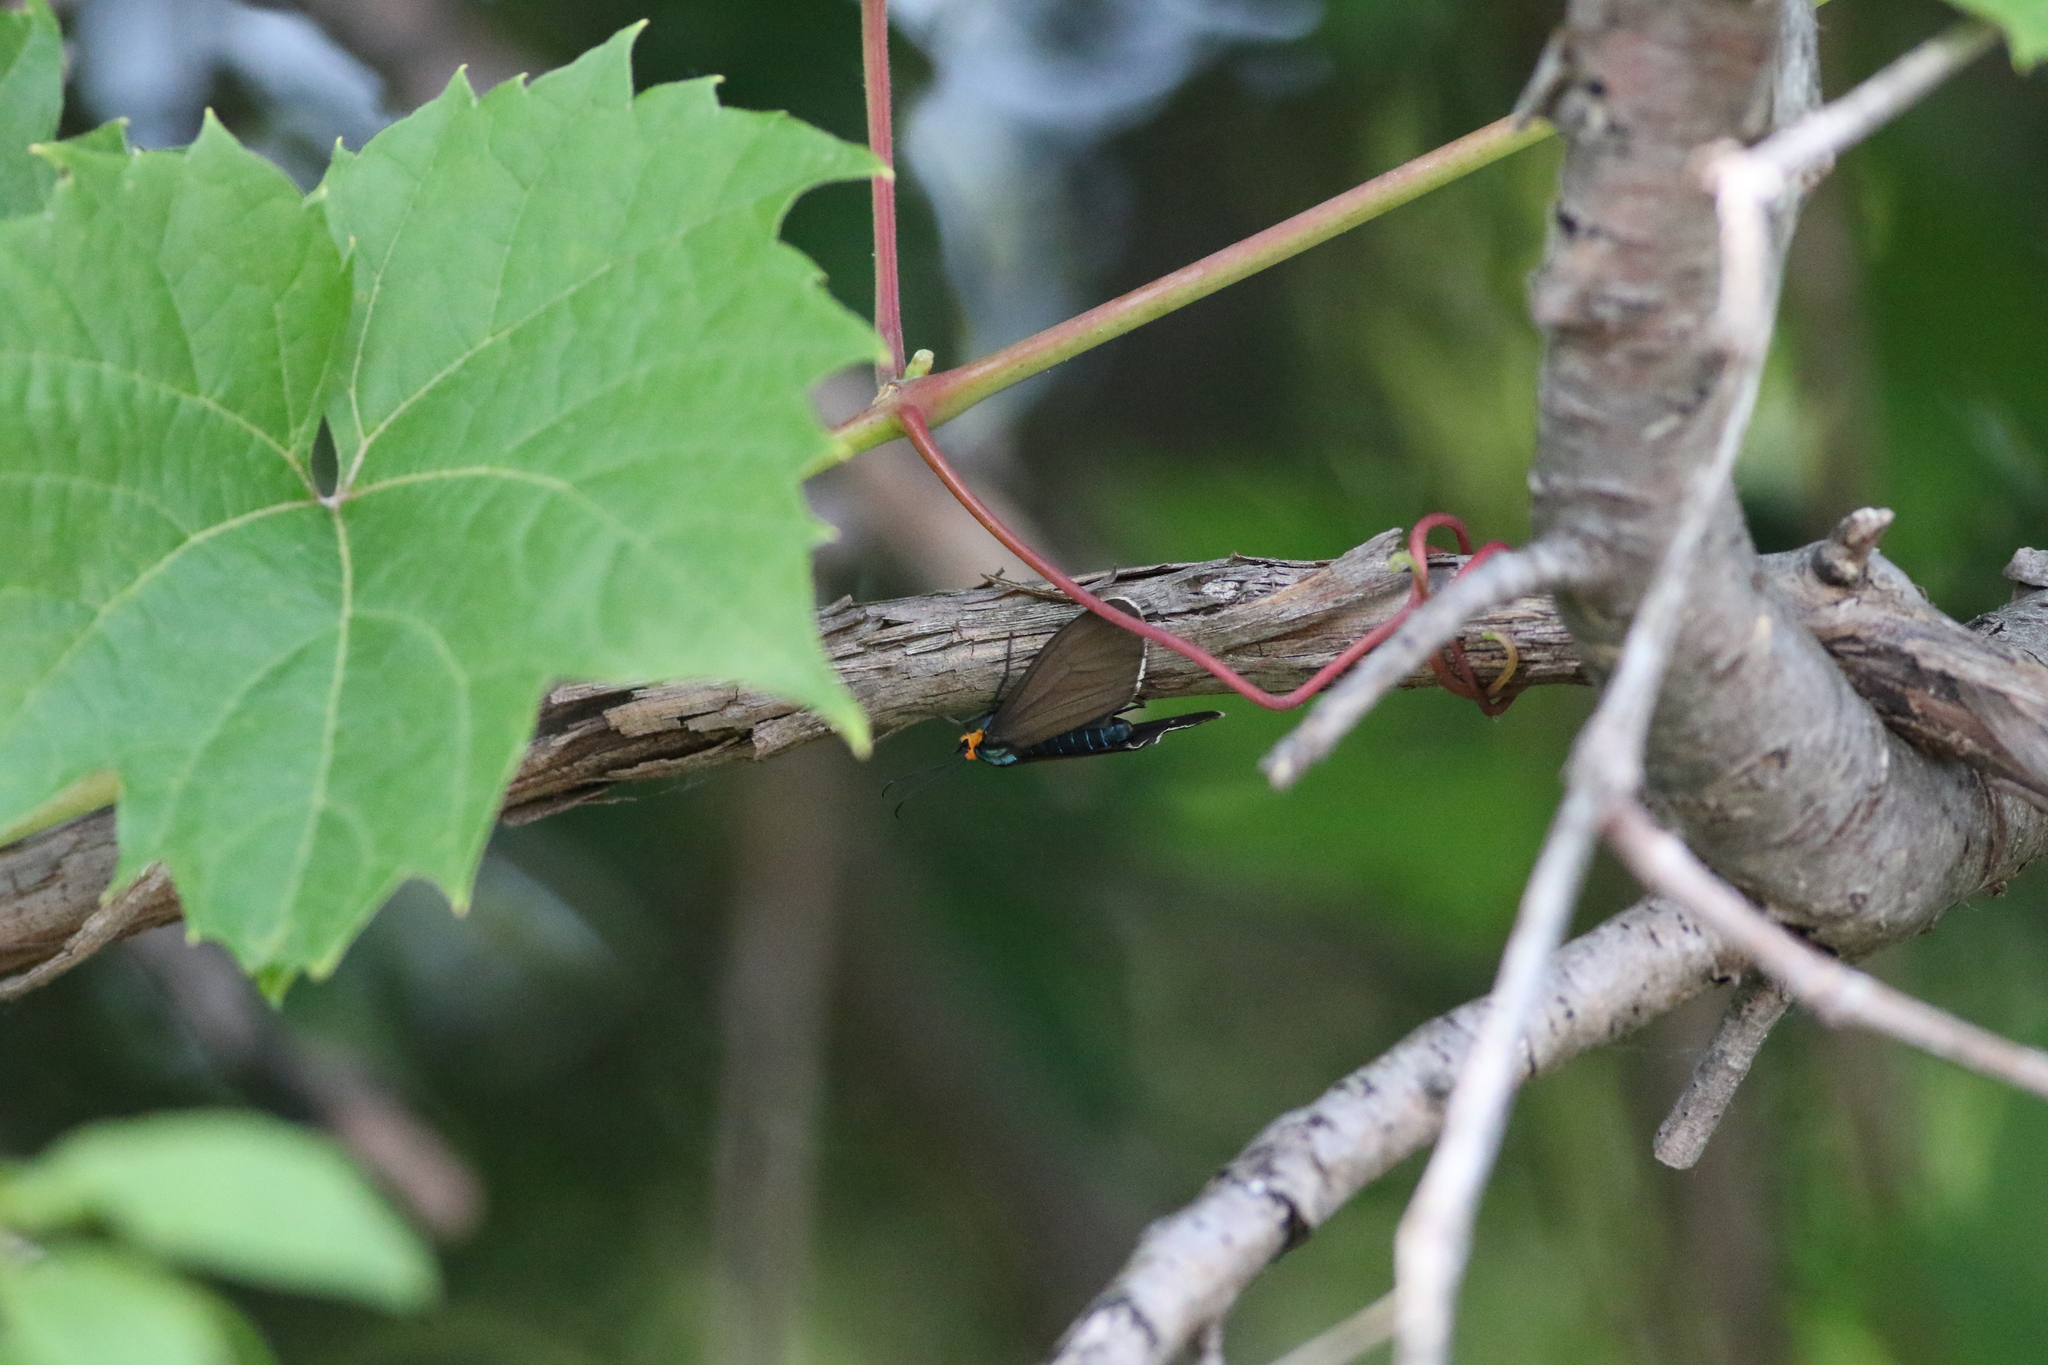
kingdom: Animalia
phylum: Arthropoda
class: Insecta
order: Lepidoptera
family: Erebidae
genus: Ctenucha
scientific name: Ctenucha virginica
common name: Virginia ctenucha moth
